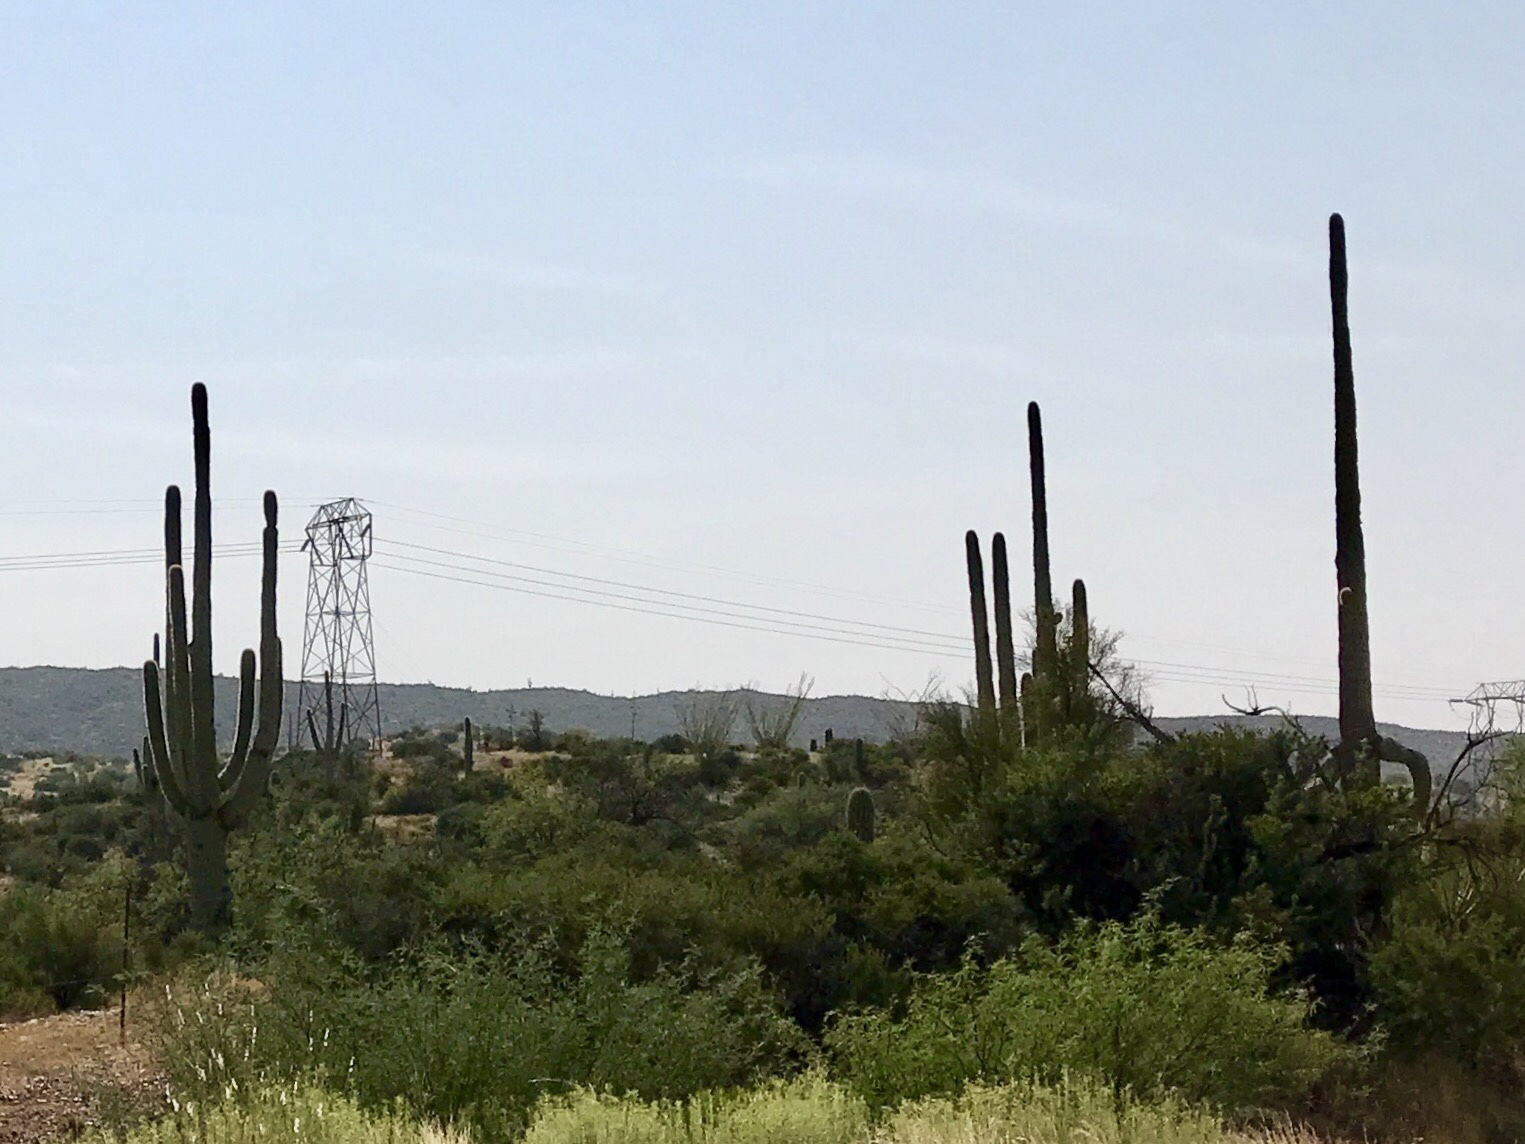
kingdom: Plantae
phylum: Tracheophyta
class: Magnoliopsida
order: Caryophyllales
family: Cactaceae
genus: Carnegiea
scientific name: Carnegiea gigantea
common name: Saguaro
